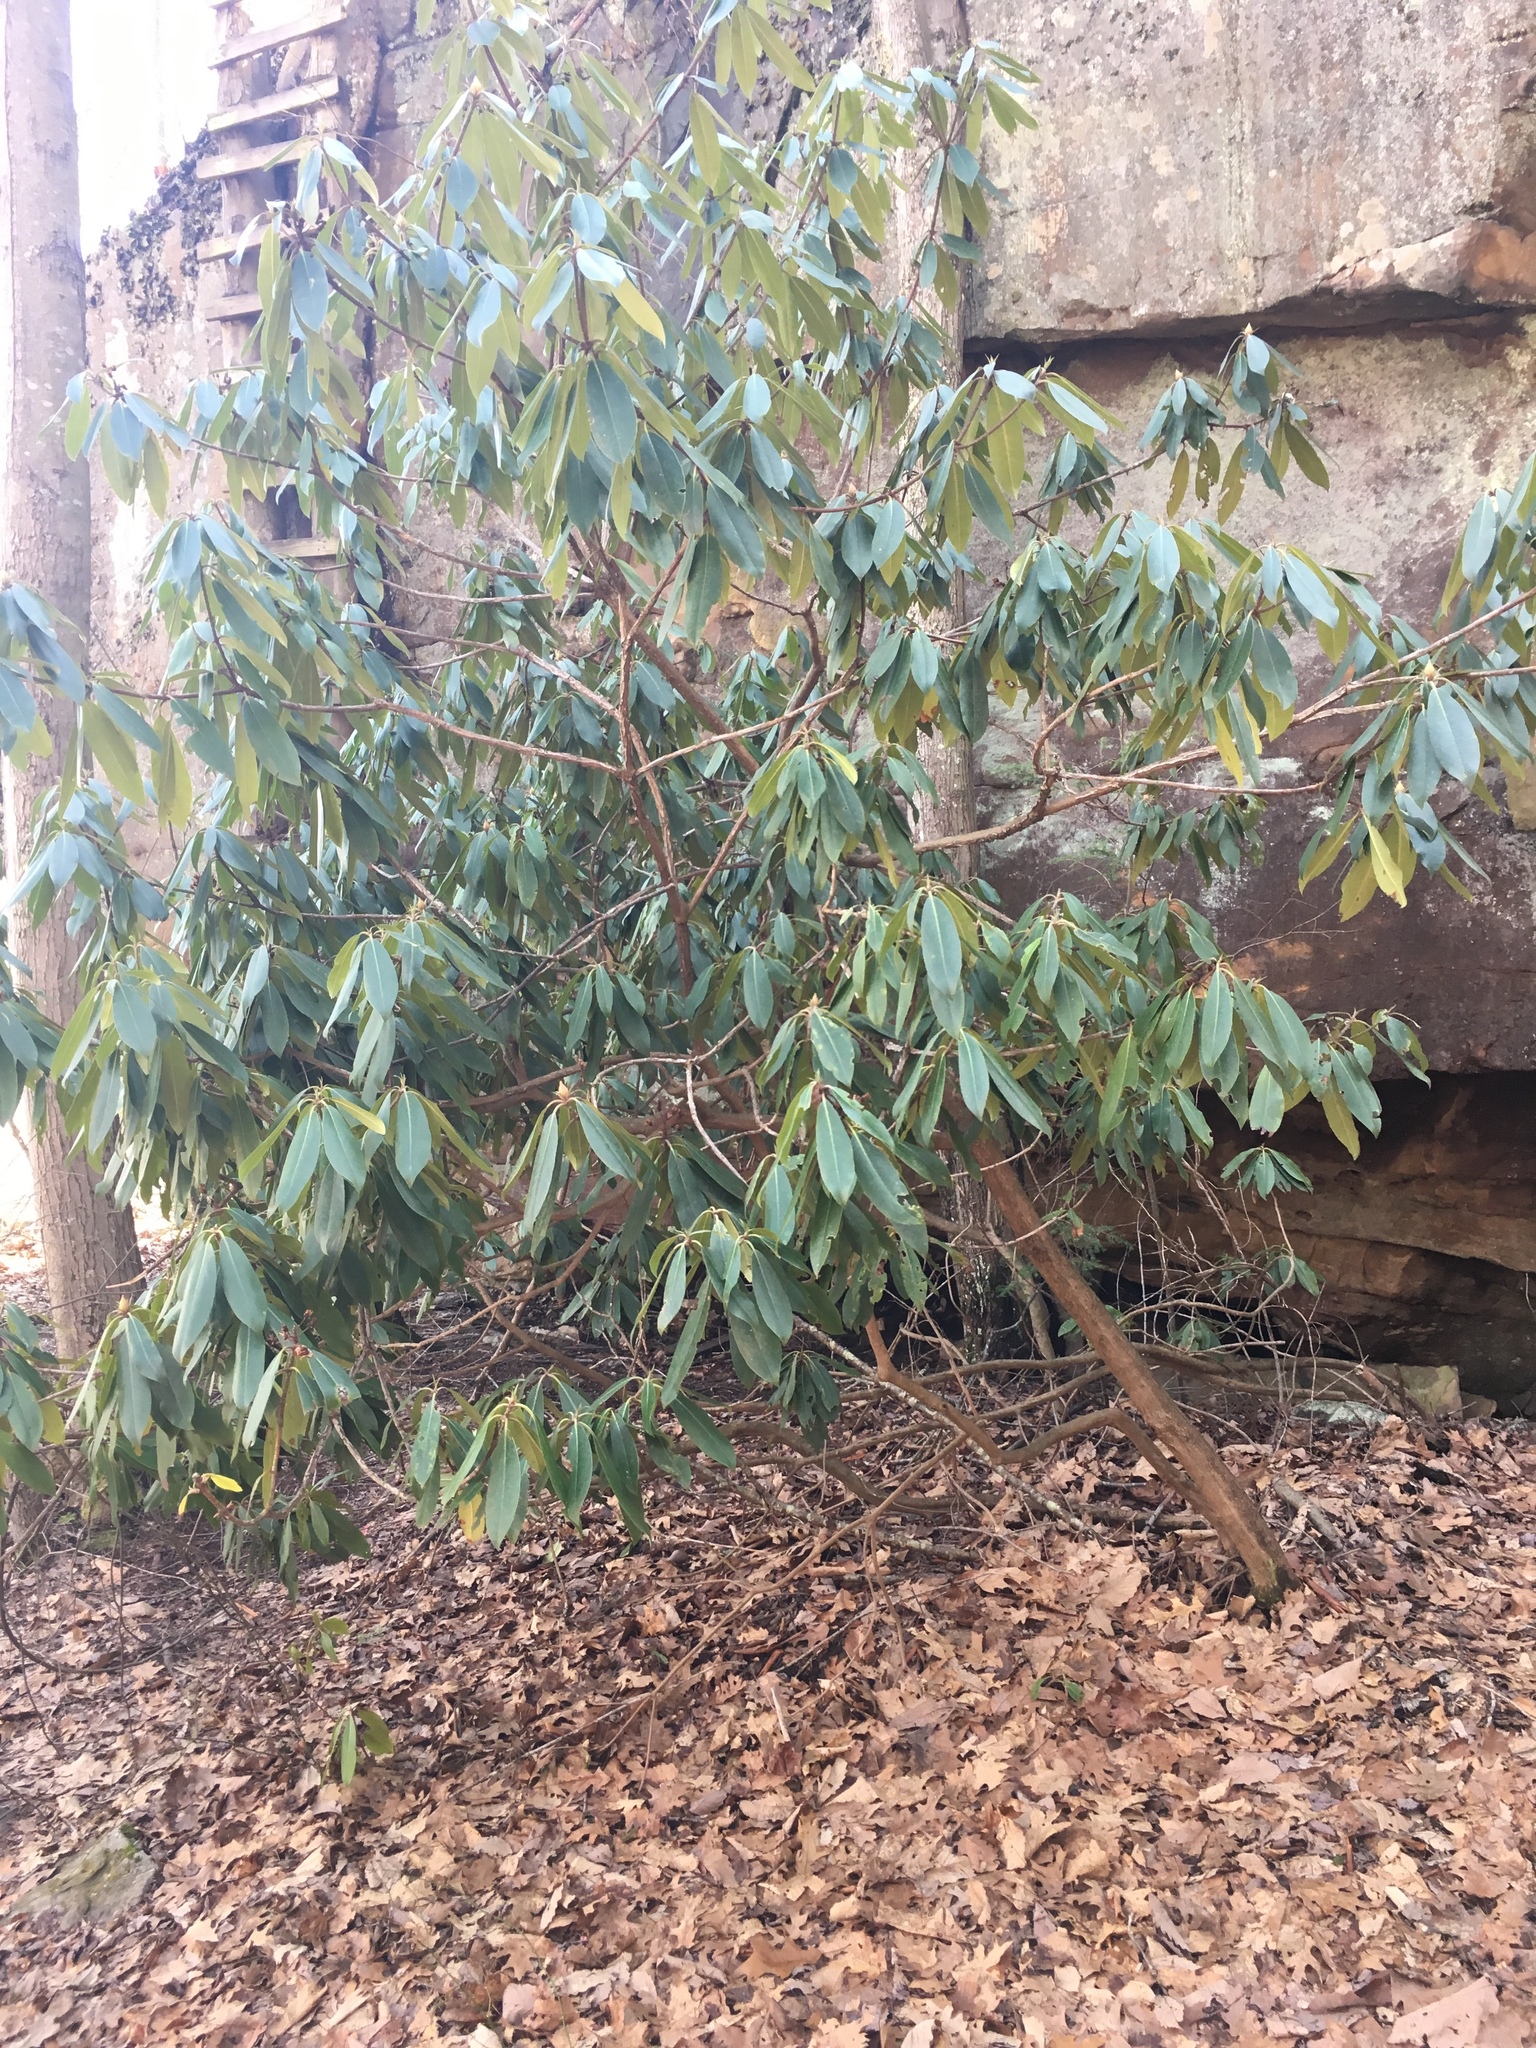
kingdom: Plantae
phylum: Tracheophyta
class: Magnoliopsida
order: Ericales
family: Ericaceae
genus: Rhododendron
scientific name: Rhododendron maximum
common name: Great rhododendron
